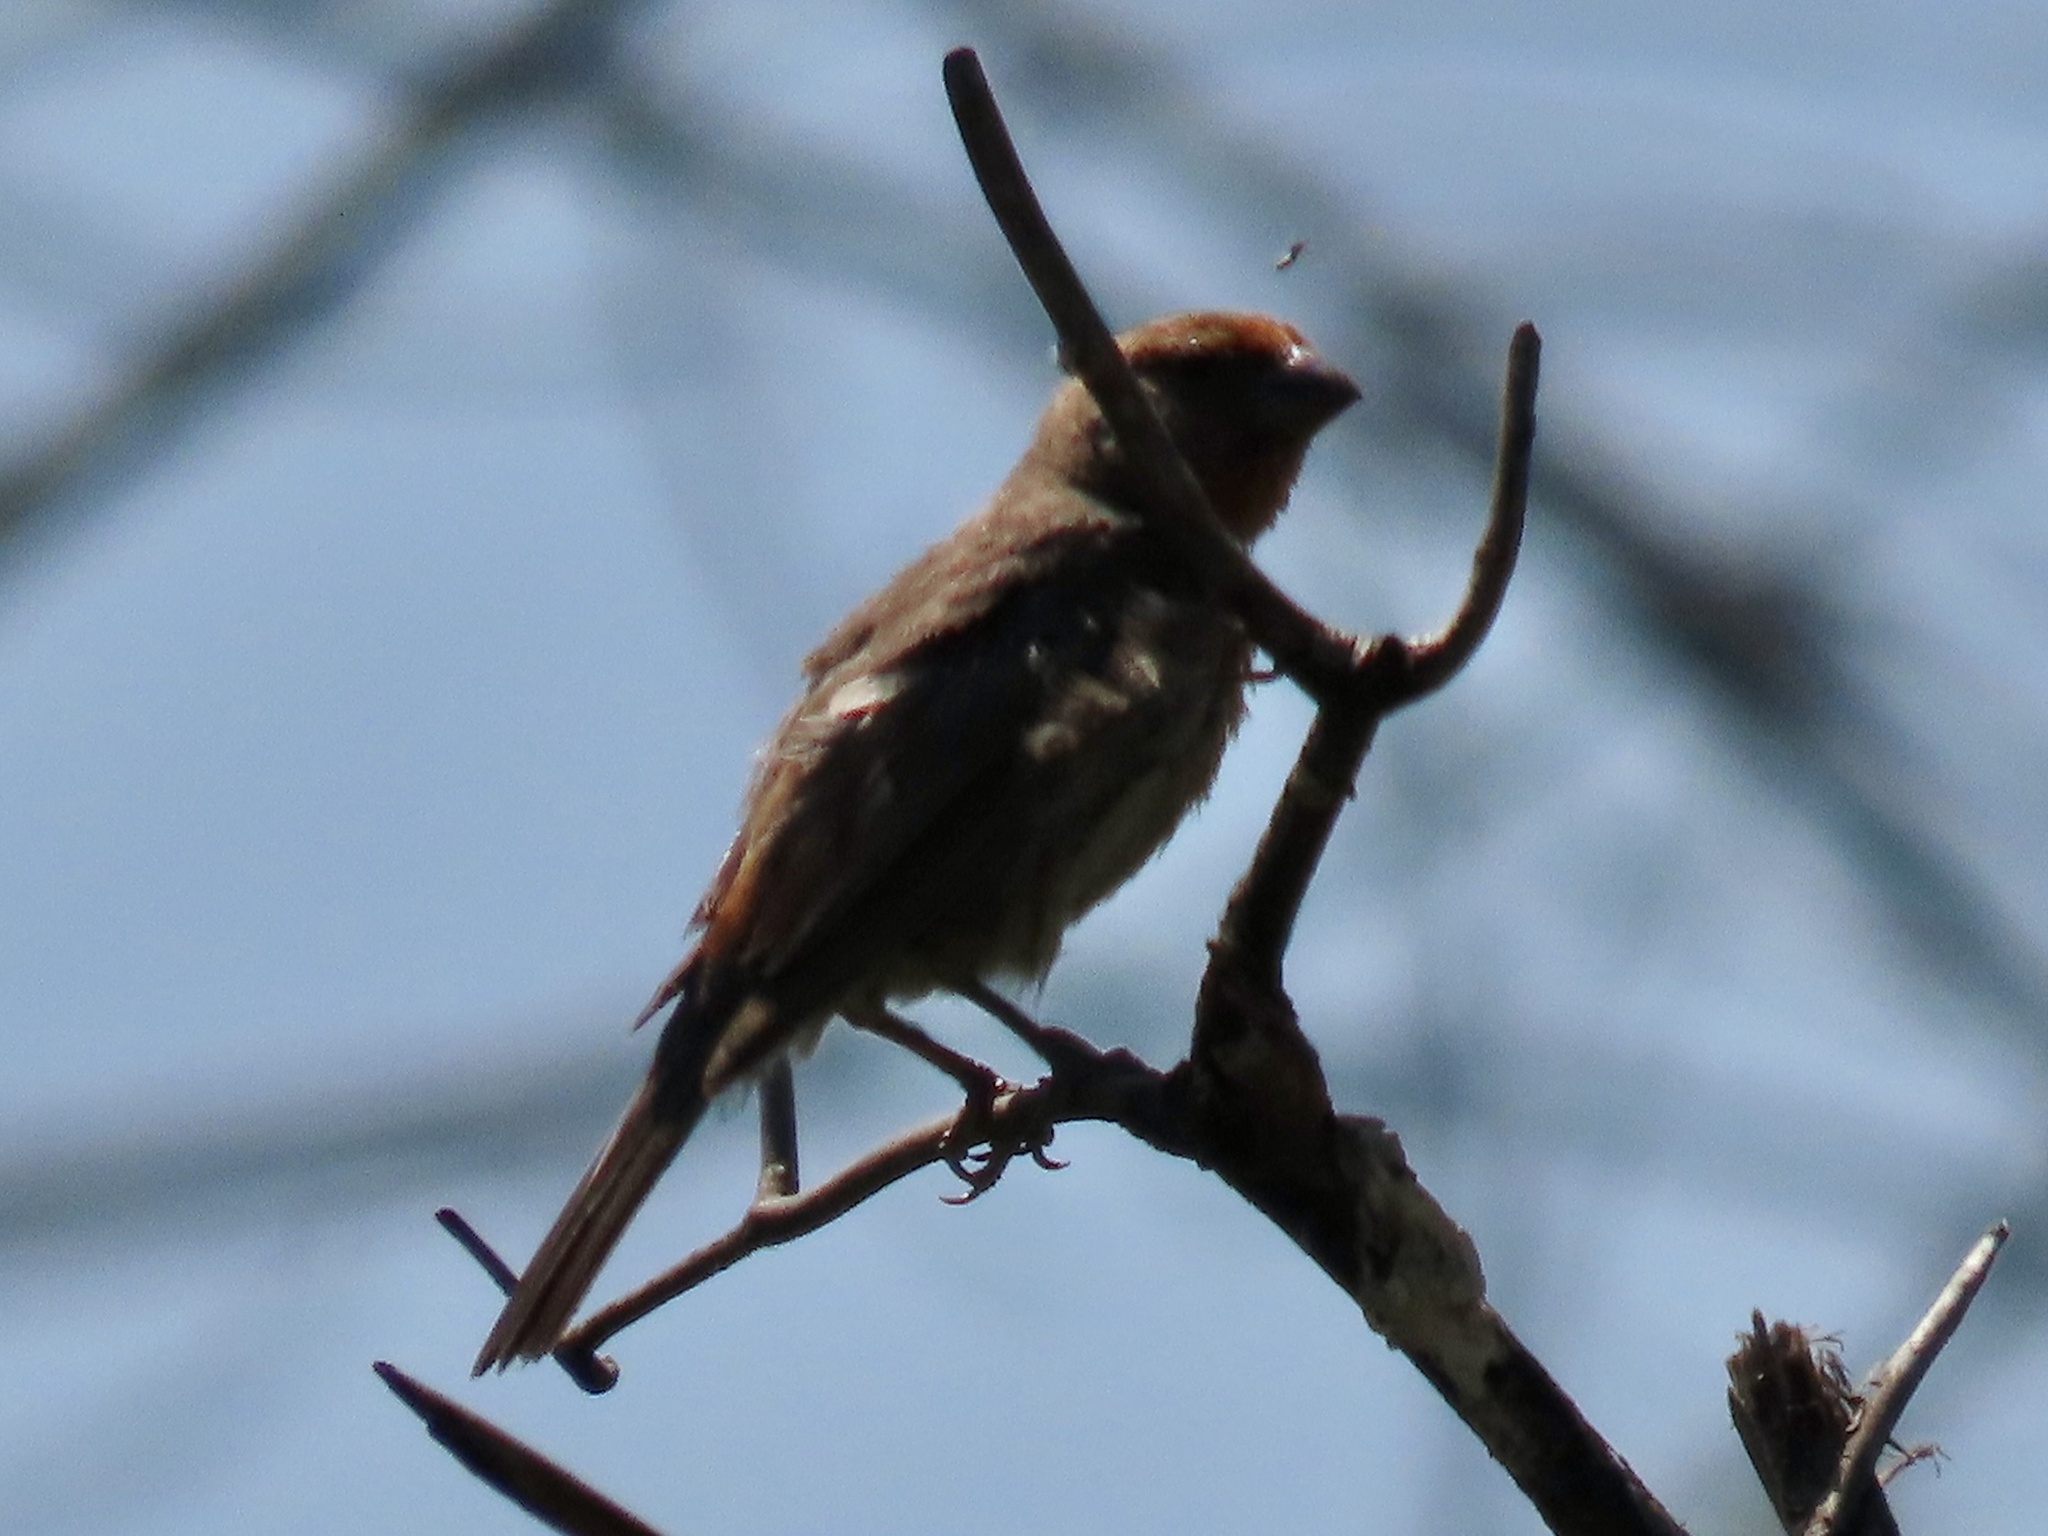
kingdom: Animalia
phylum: Chordata
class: Aves
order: Passeriformes
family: Fringillidae
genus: Haemorhous
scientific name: Haemorhous mexicanus
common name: House finch
